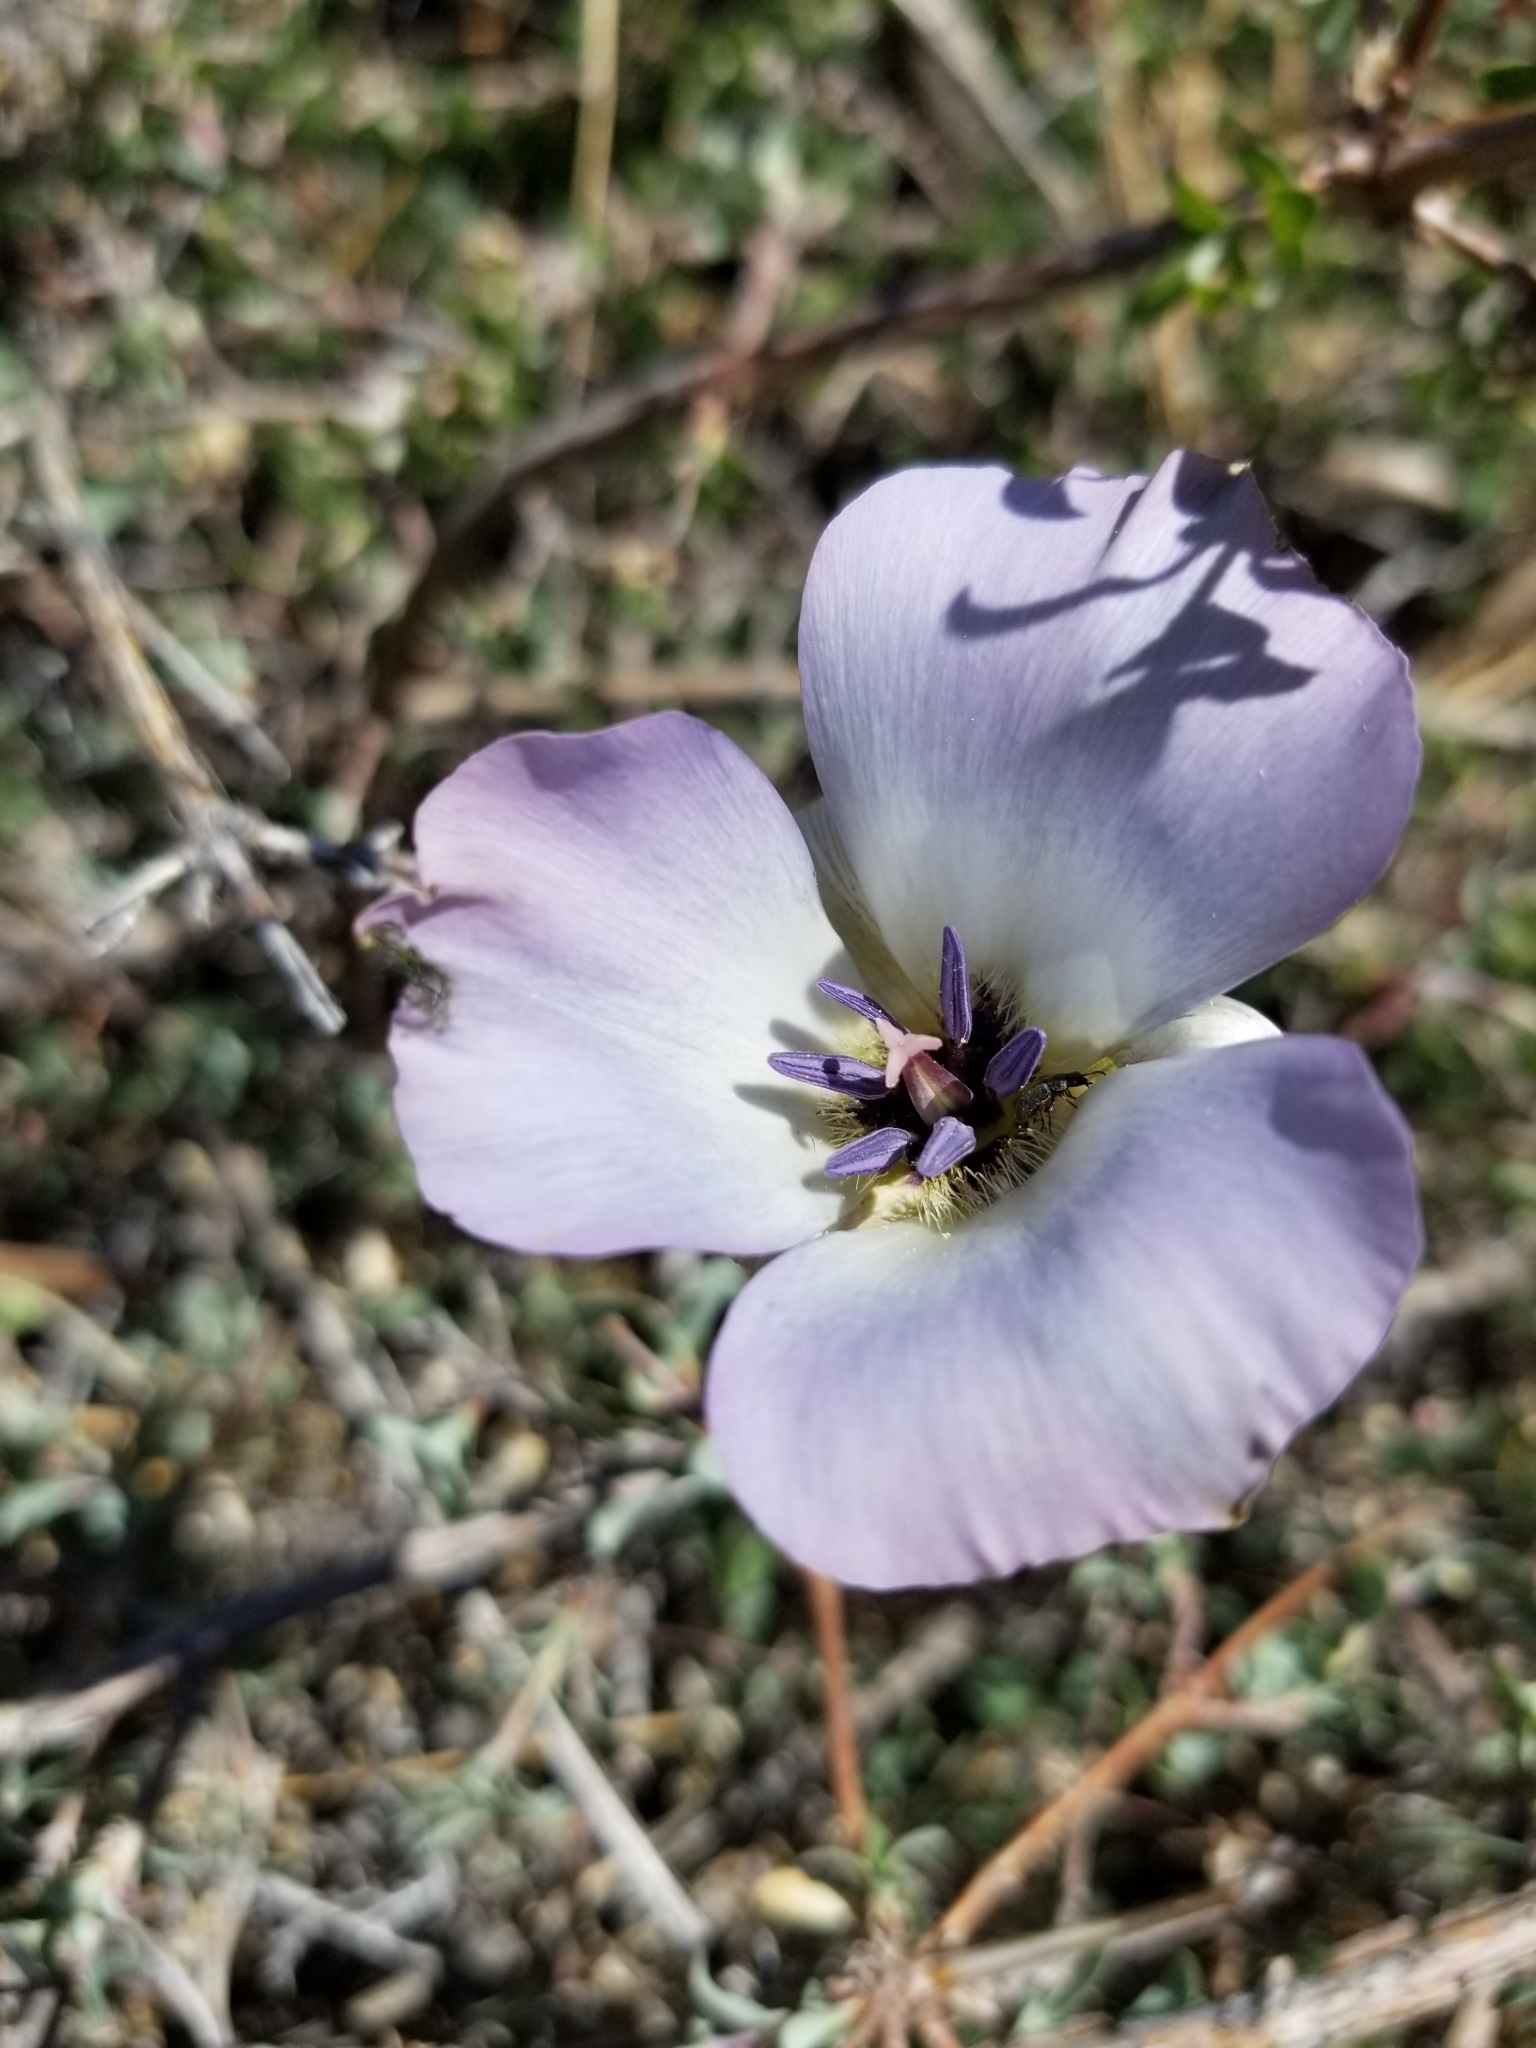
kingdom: Plantae
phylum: Tracheophyta
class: Liliopsida
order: Liliales
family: Liliaceae
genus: Calochortus
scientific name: Calochortus invenustus
